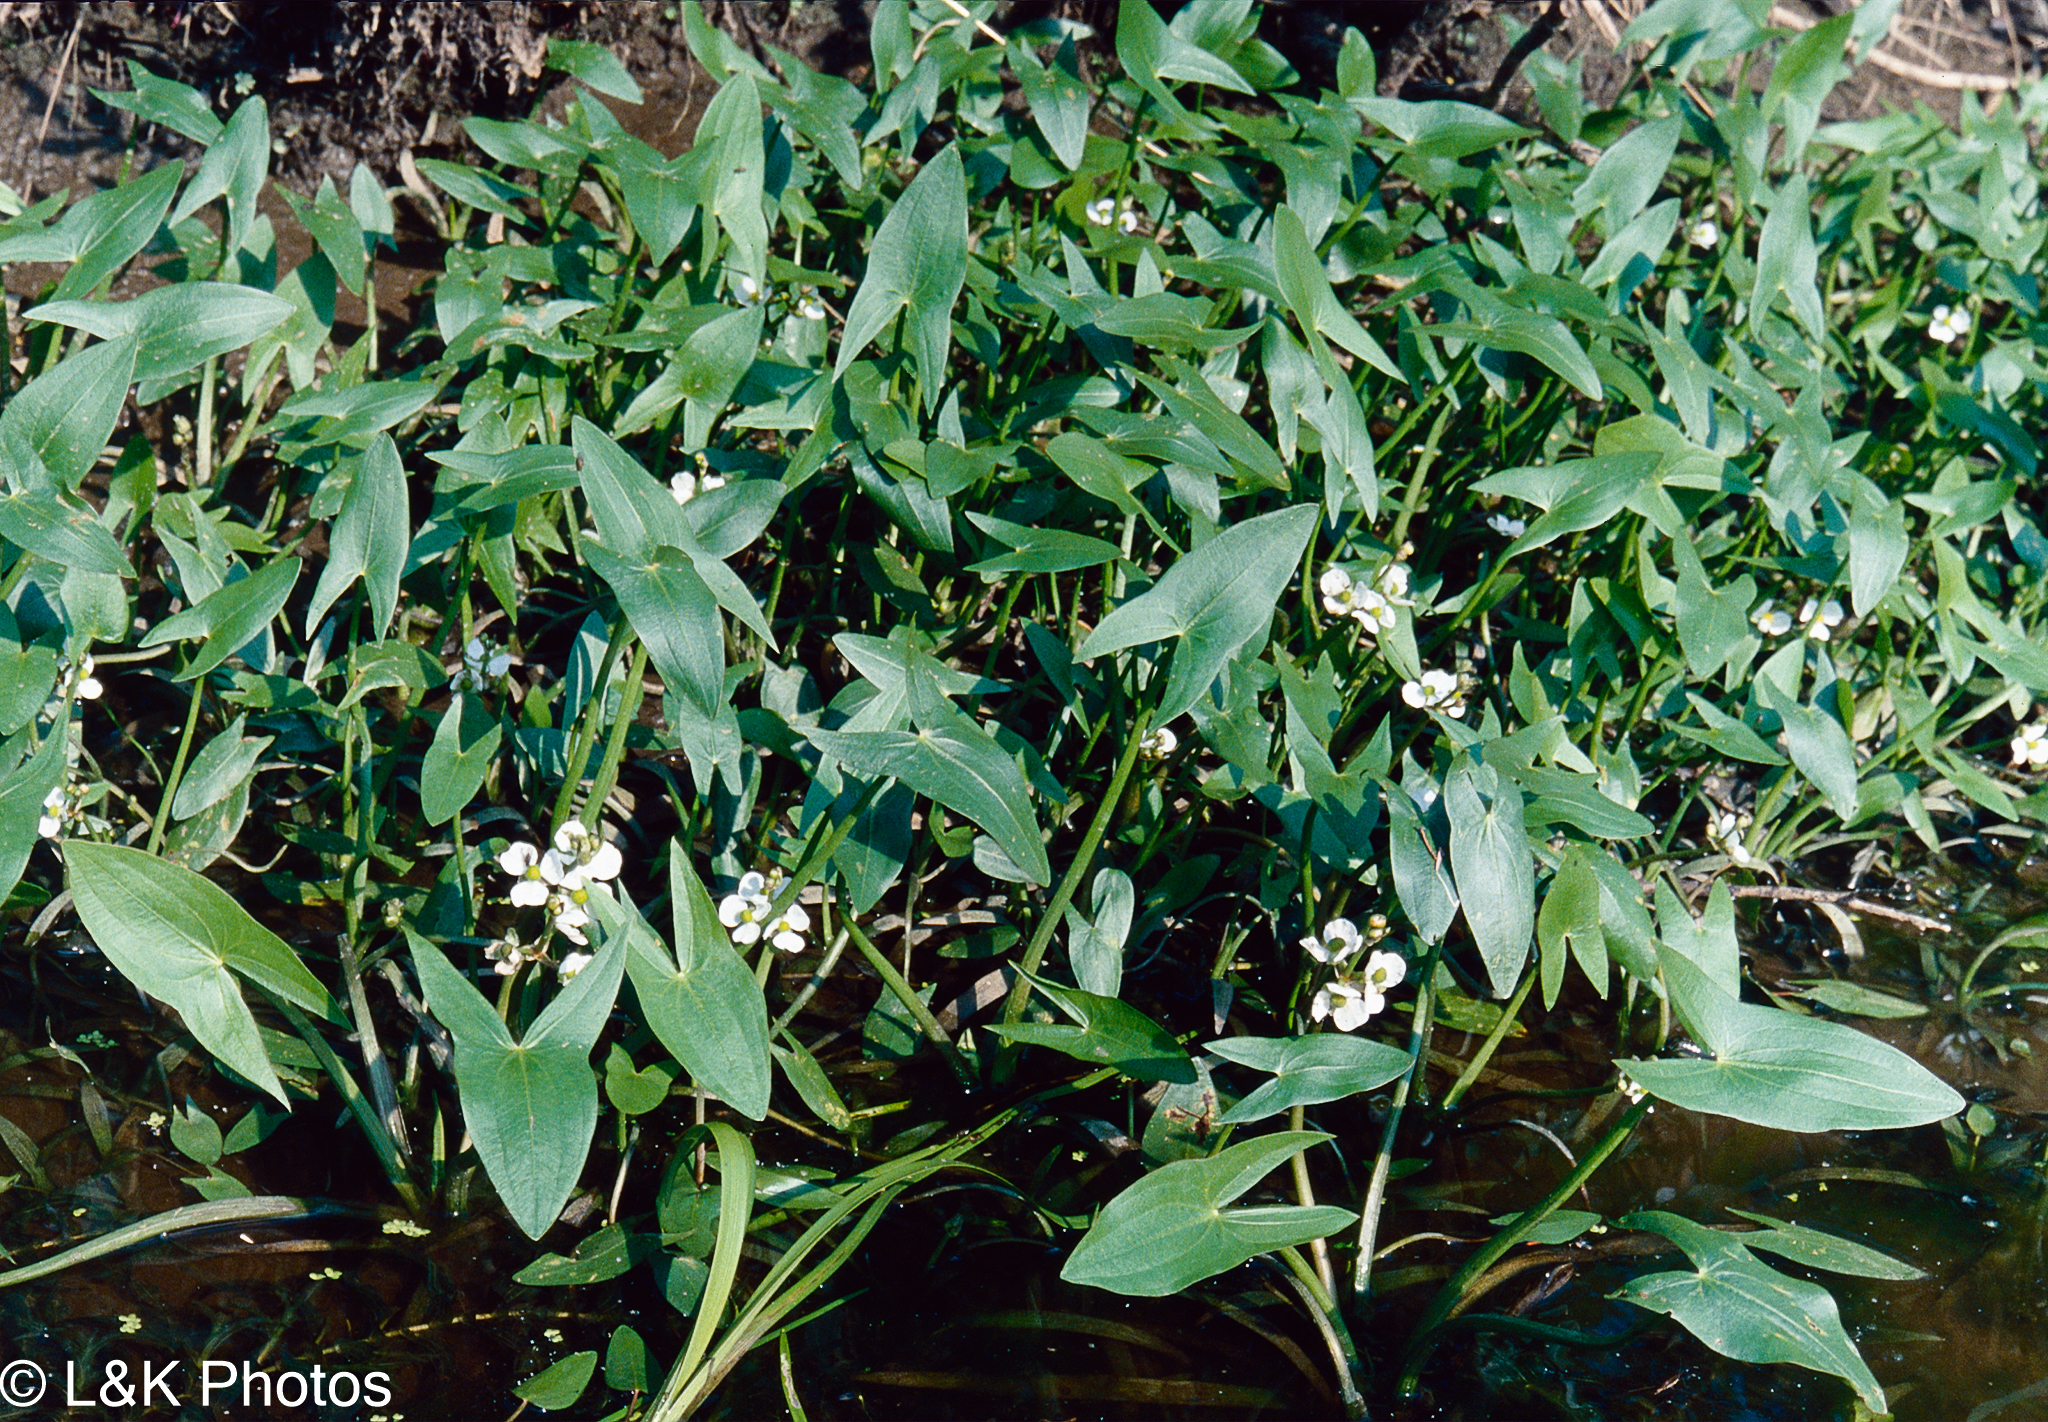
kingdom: Plantae
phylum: Tracheophyta
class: Liliopsida
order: Alismatales
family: Alismataceae
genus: Sagittaria
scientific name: Sagittaria cuneata
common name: Northern arrowhead
